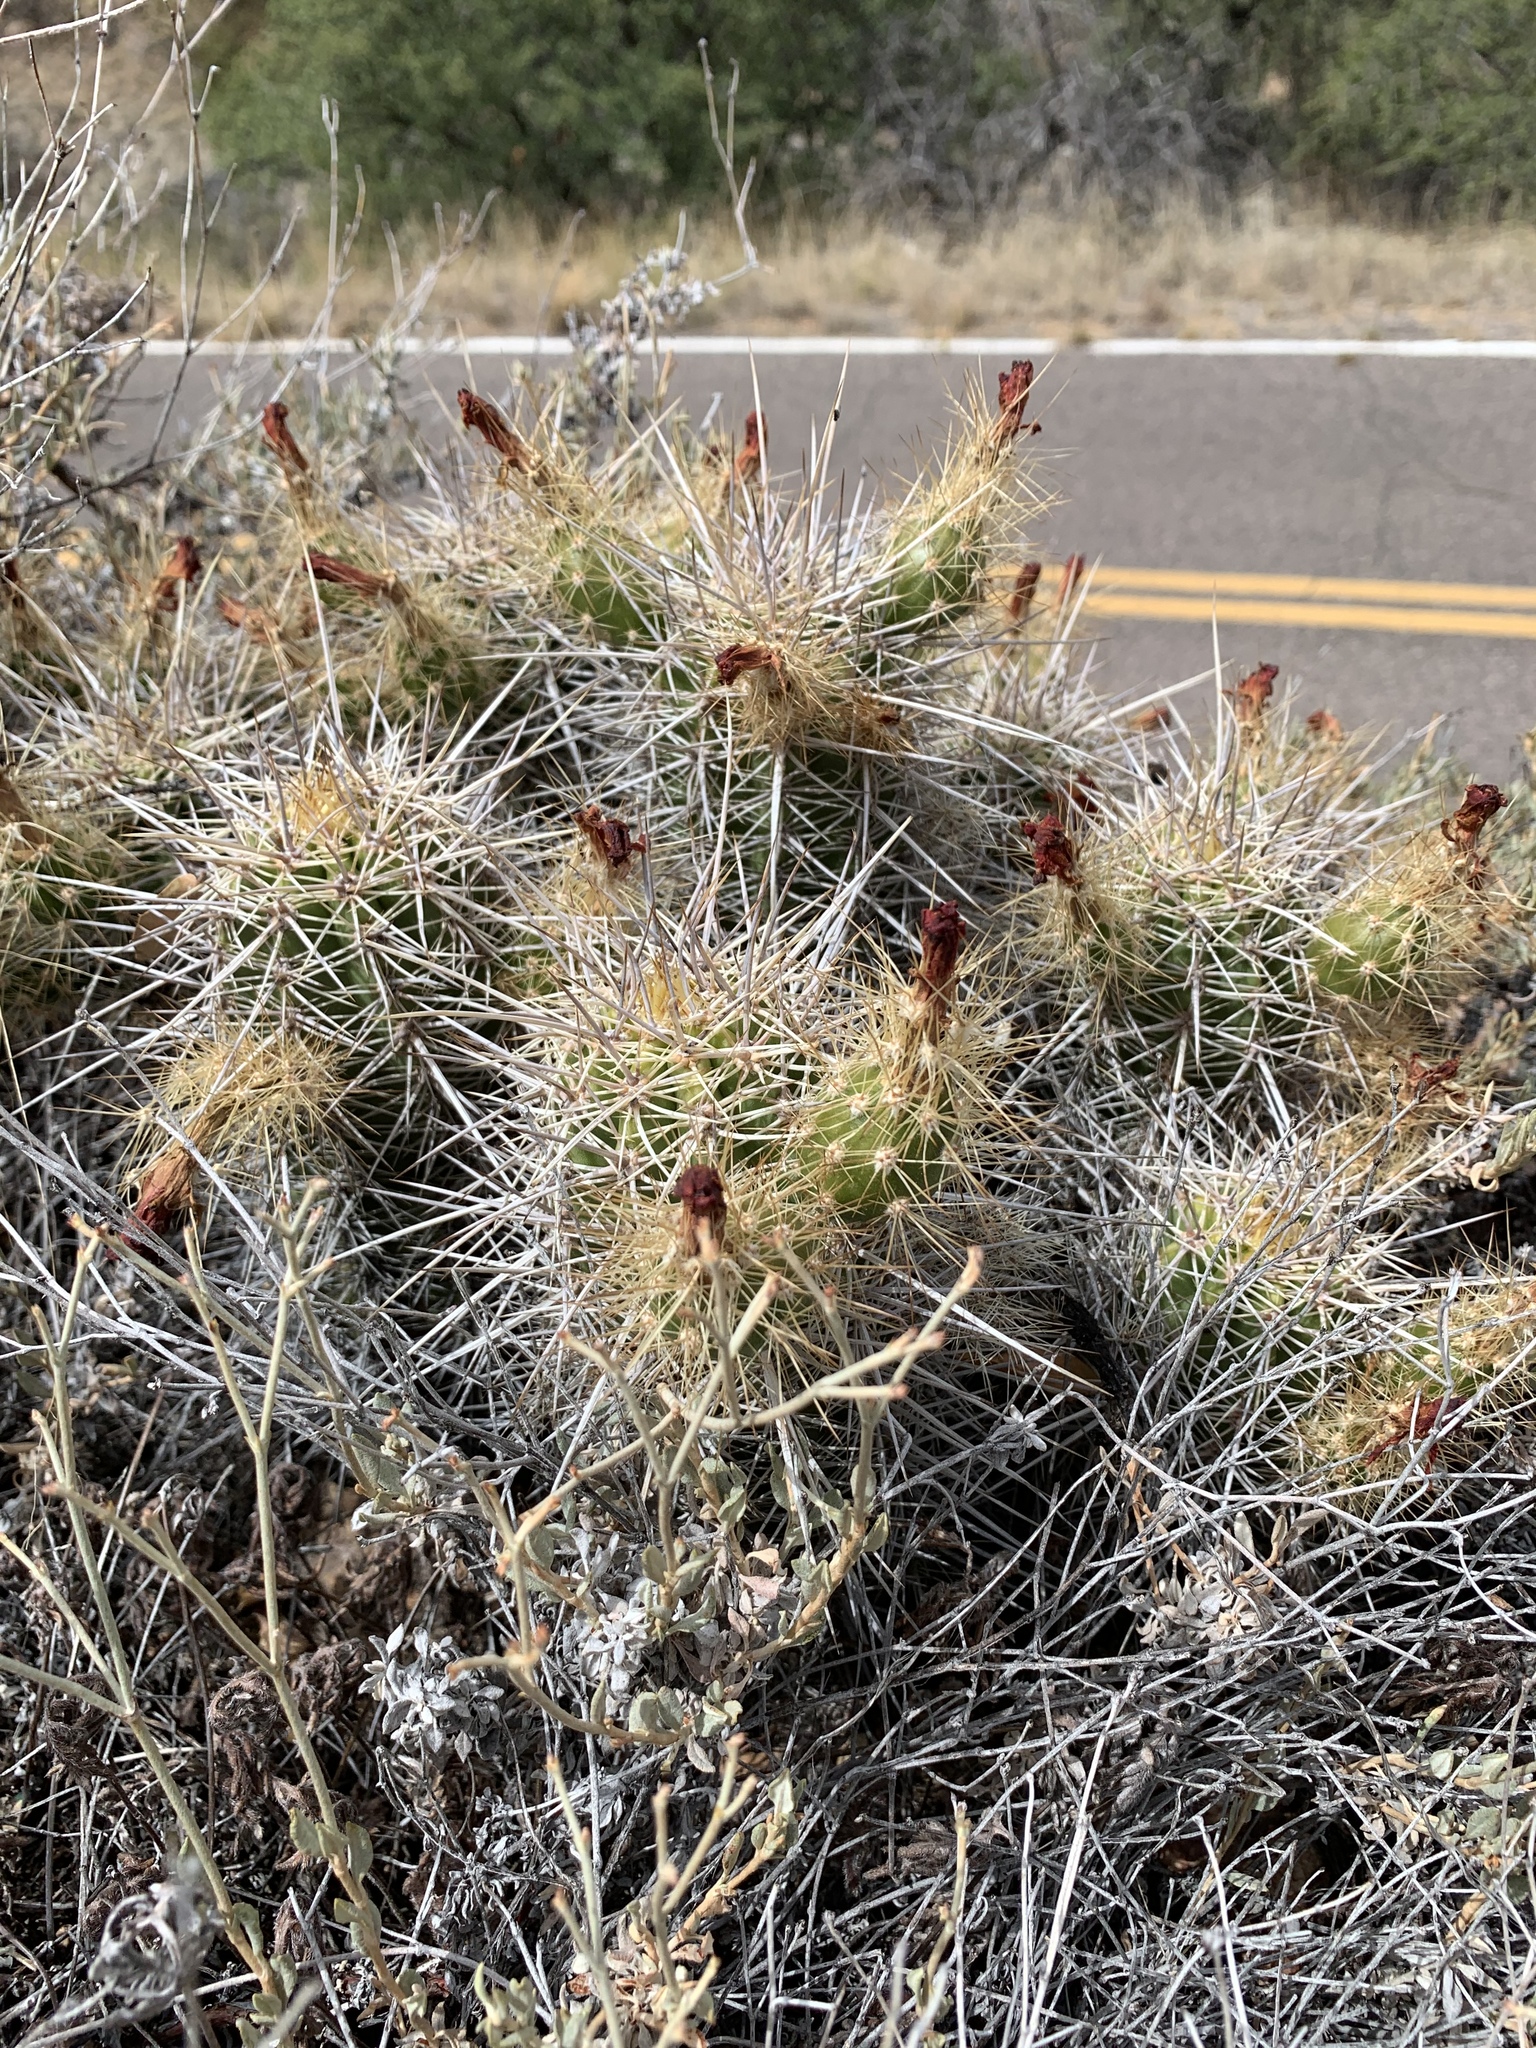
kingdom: Plantae
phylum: Tracheophyta
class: Magnoliopsida
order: Caryophyllales
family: Cactaceae
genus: Echinocereus
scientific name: Echinocereus coccineus
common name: Scarlet hedgehog cactus
